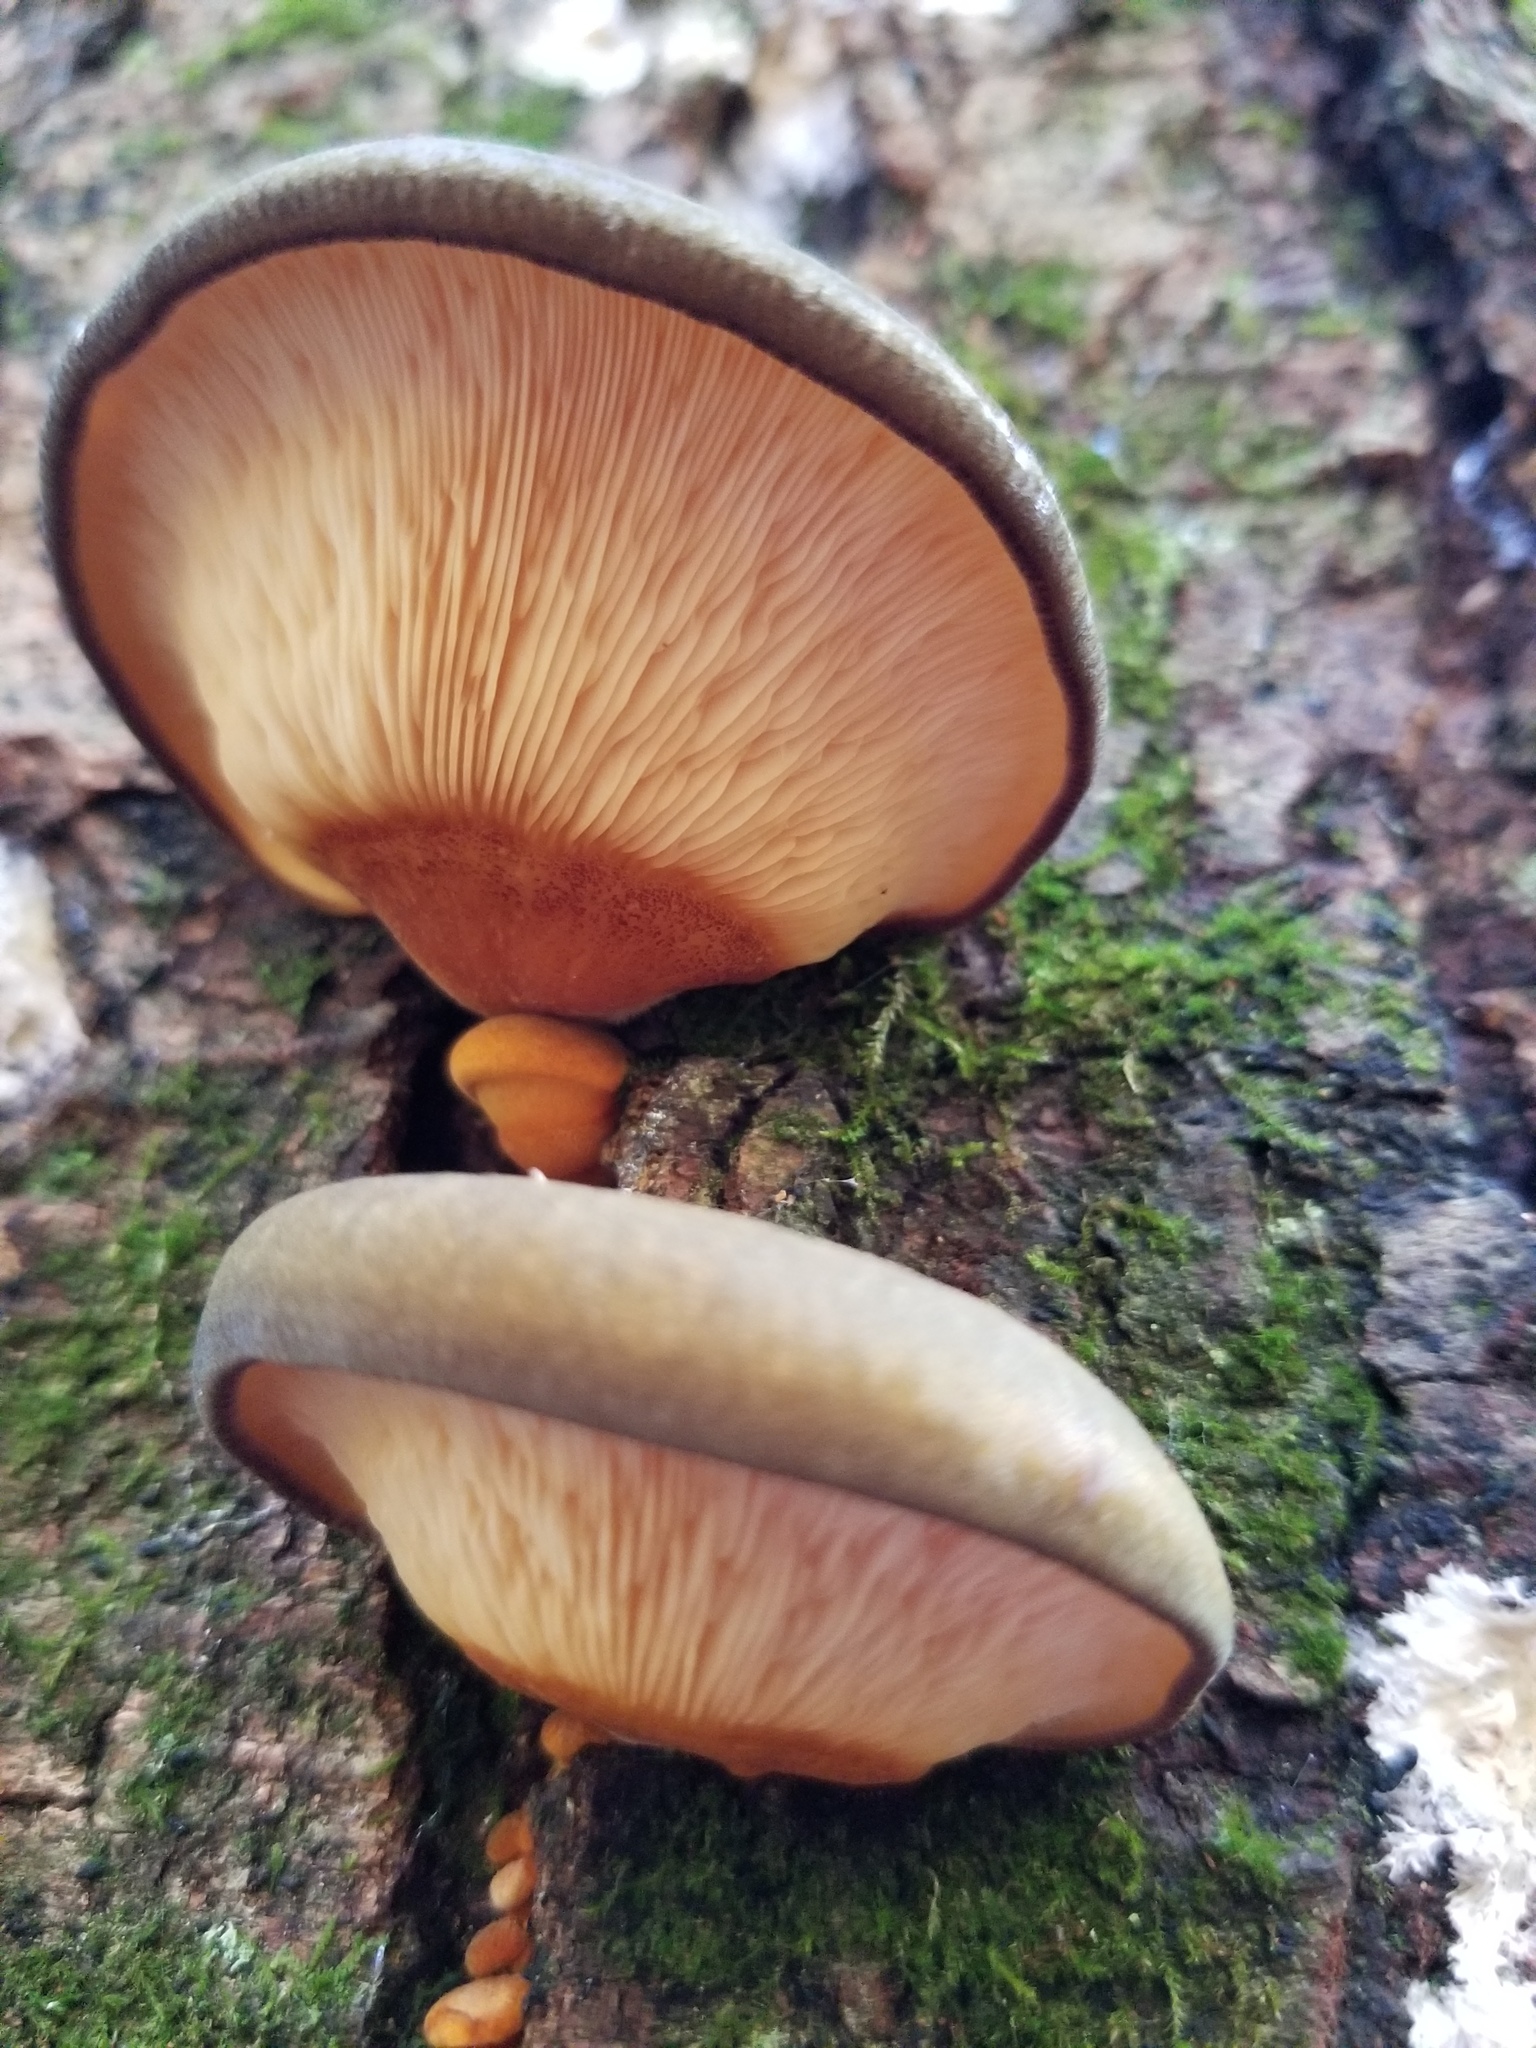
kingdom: Fungi
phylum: Basidiomycota
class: Agaricomycetes
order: Agaricales
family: Sarcomyxaceae
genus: Sarcomyxa
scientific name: Sarcomyxa serotina
